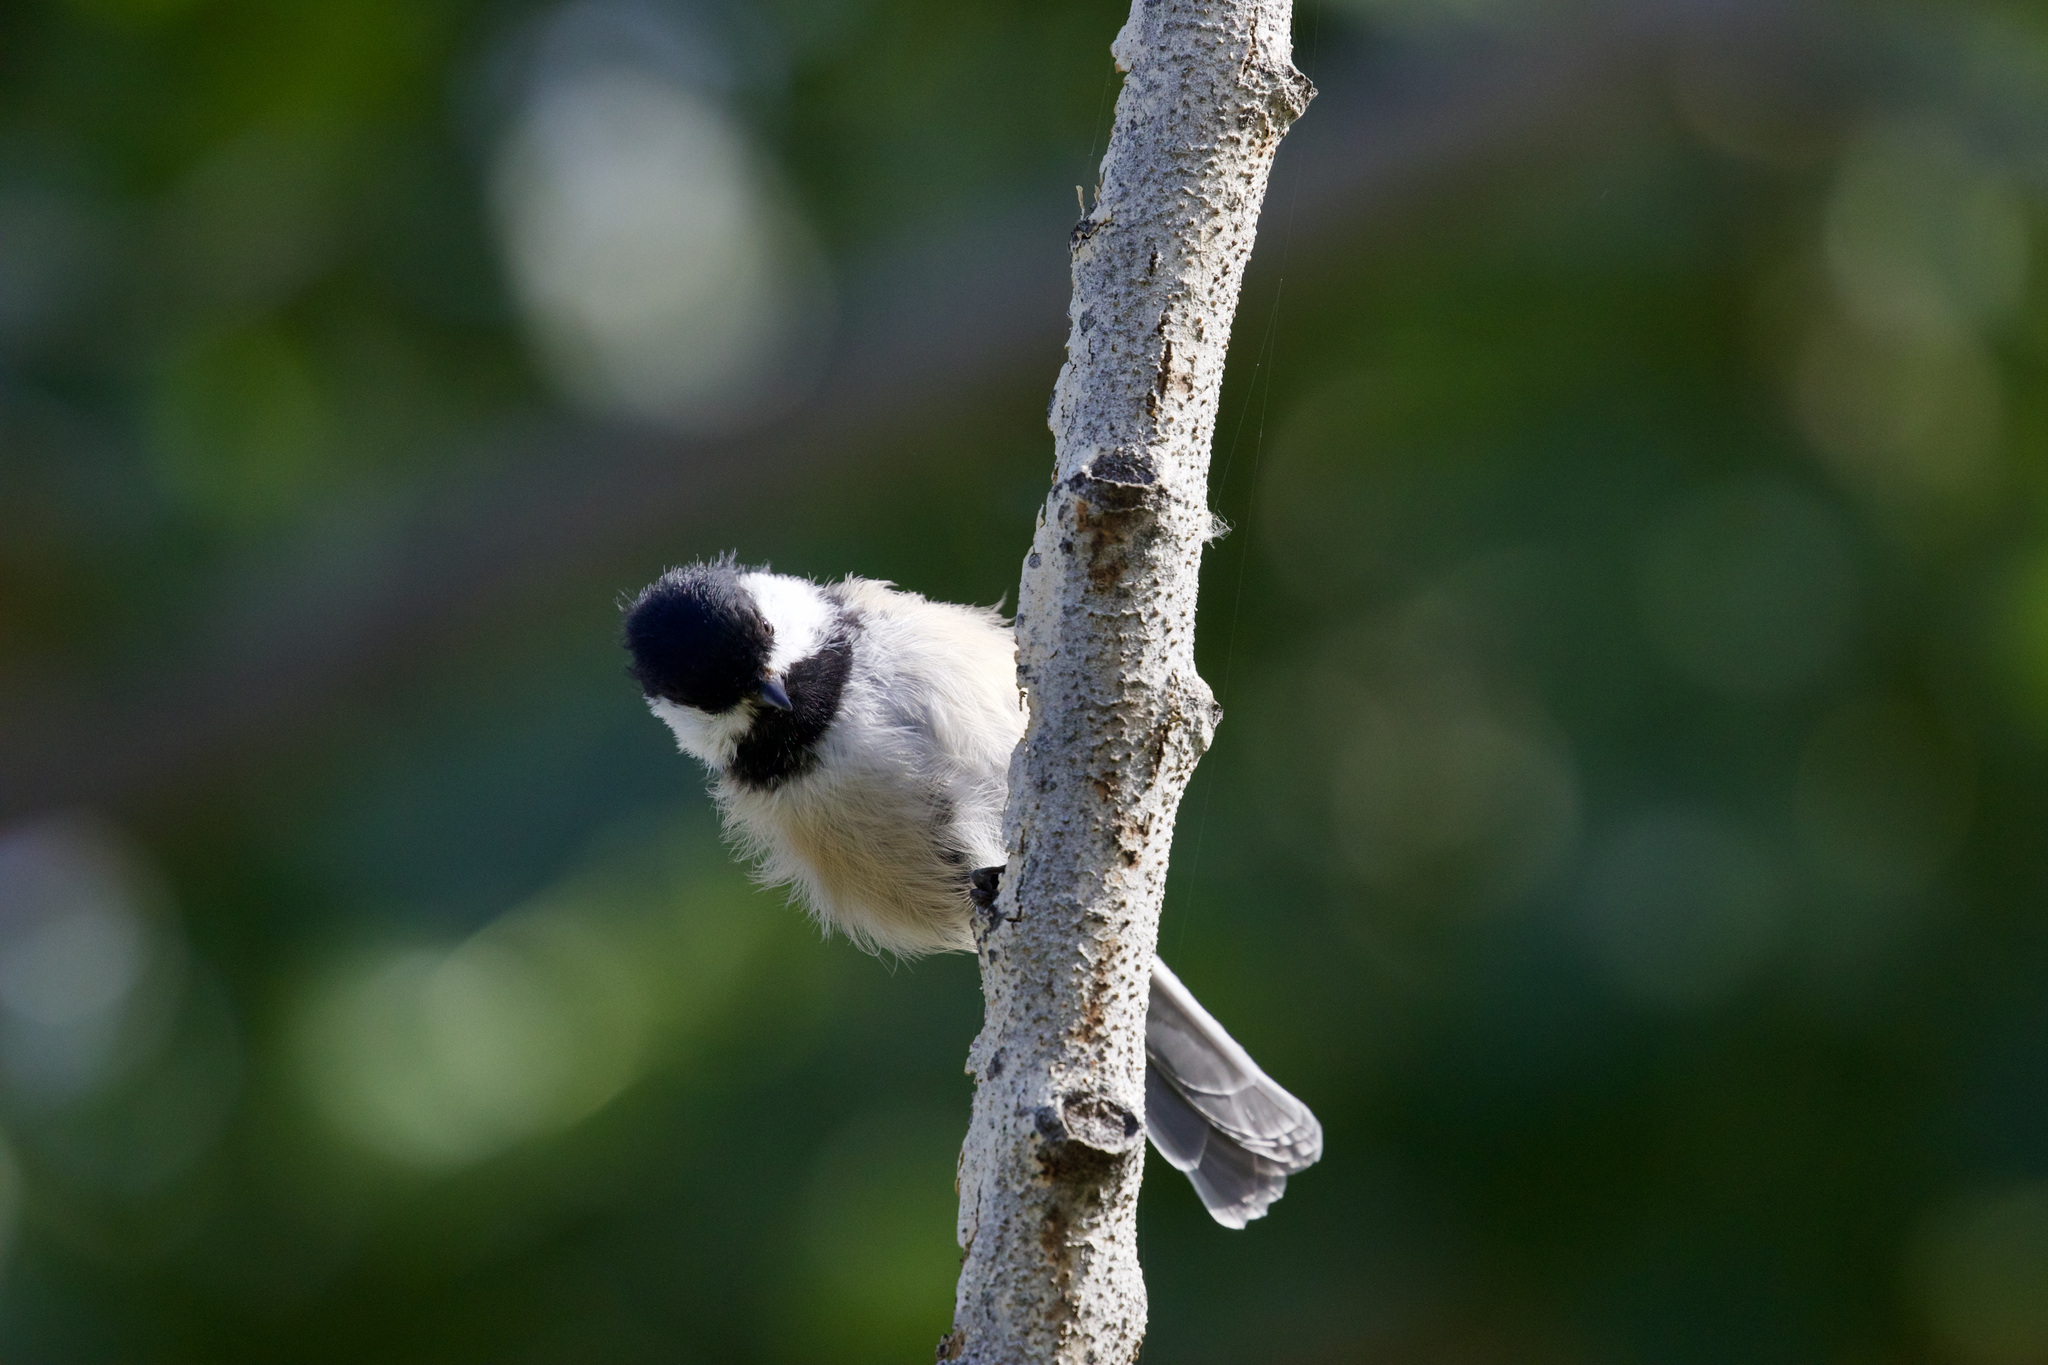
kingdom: Animalia
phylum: Chordata
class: Aves
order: Passeriformes
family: Paridae
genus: Poecile
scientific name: Poecile atricapillus
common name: Black-capped chickadee
